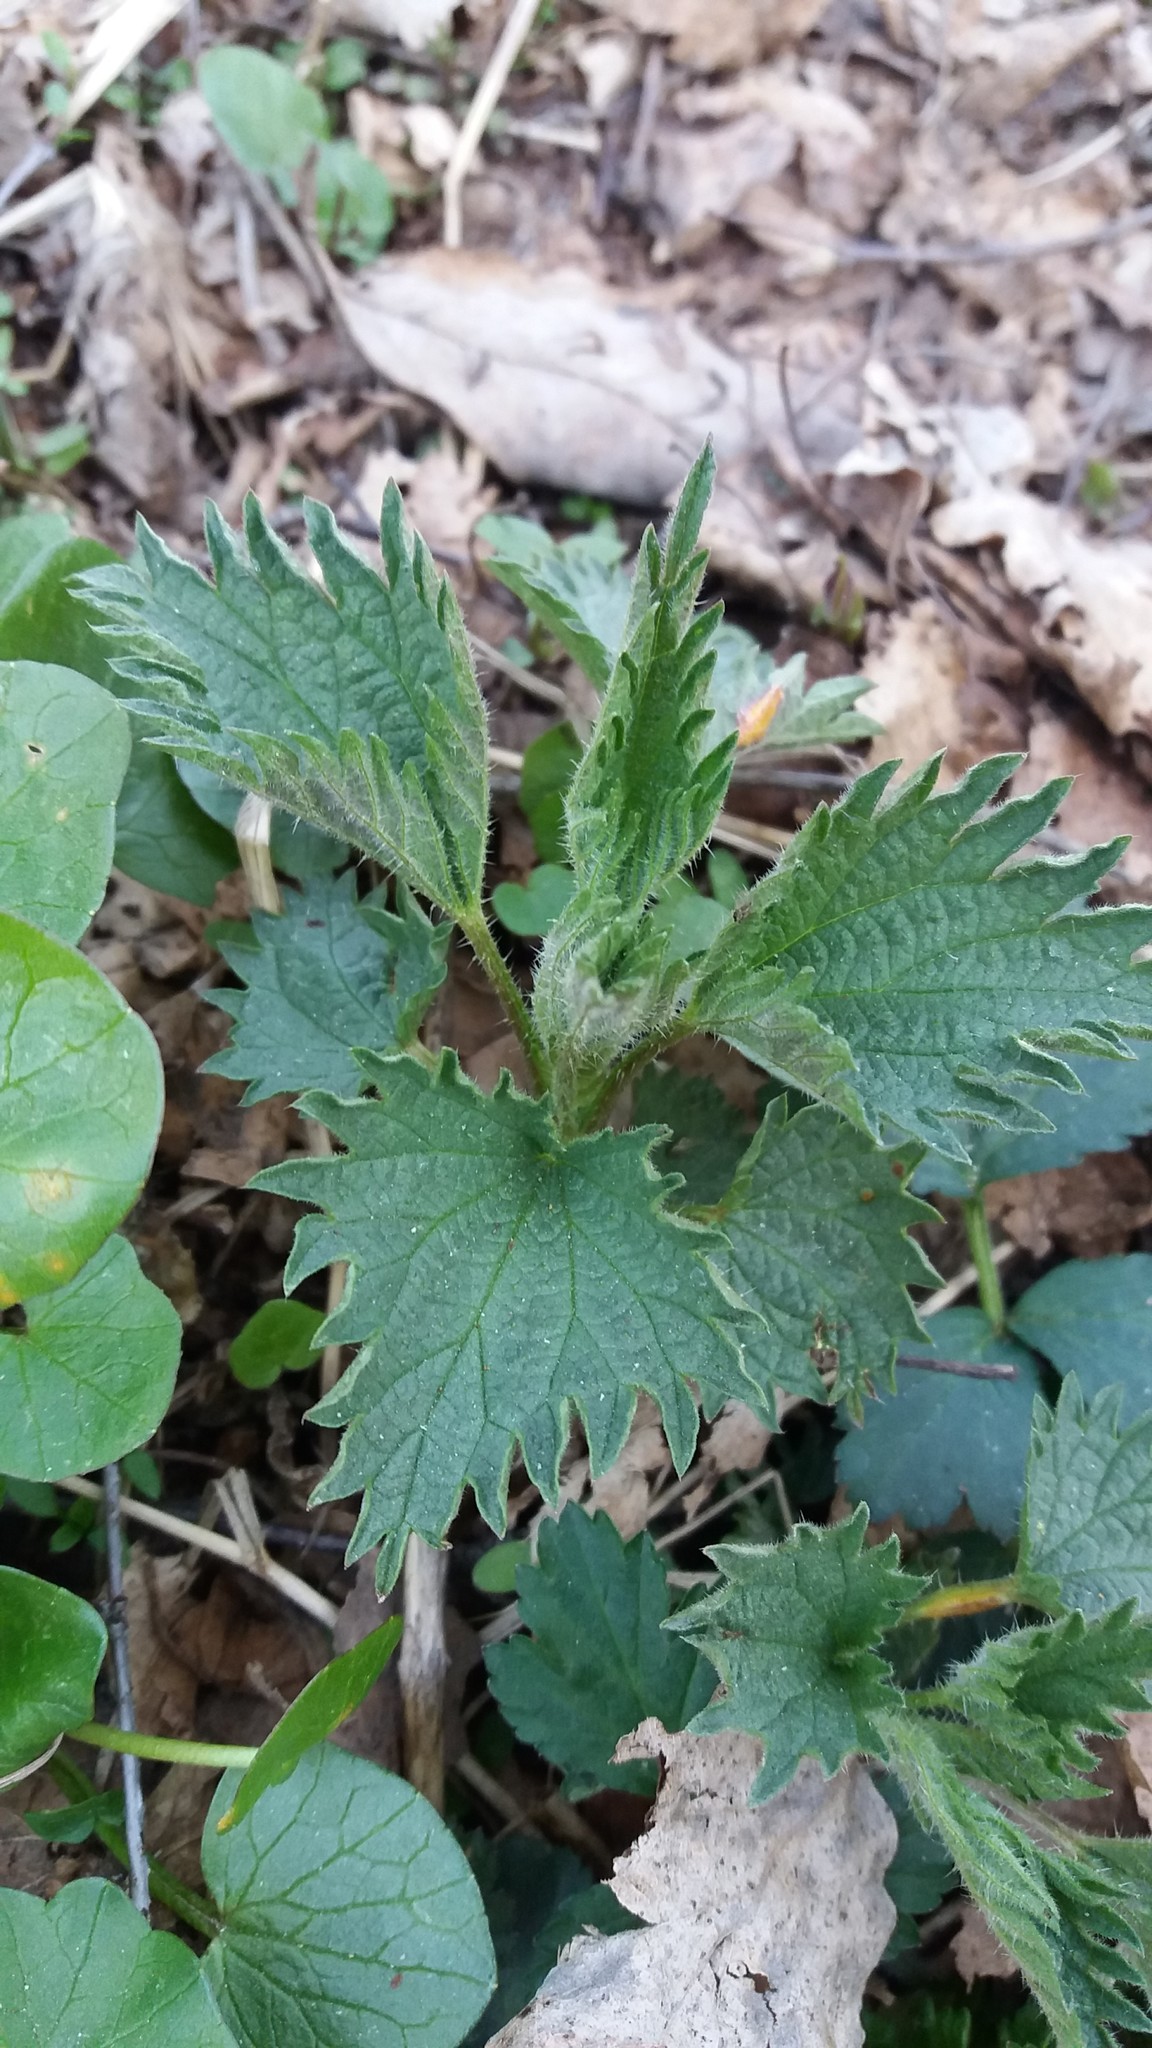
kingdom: Plantae
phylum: Tracheophyta
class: Magnoliopsida
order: Rosales
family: Urticaceae
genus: Urtica
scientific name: Urtica dioica
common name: Common nettle
